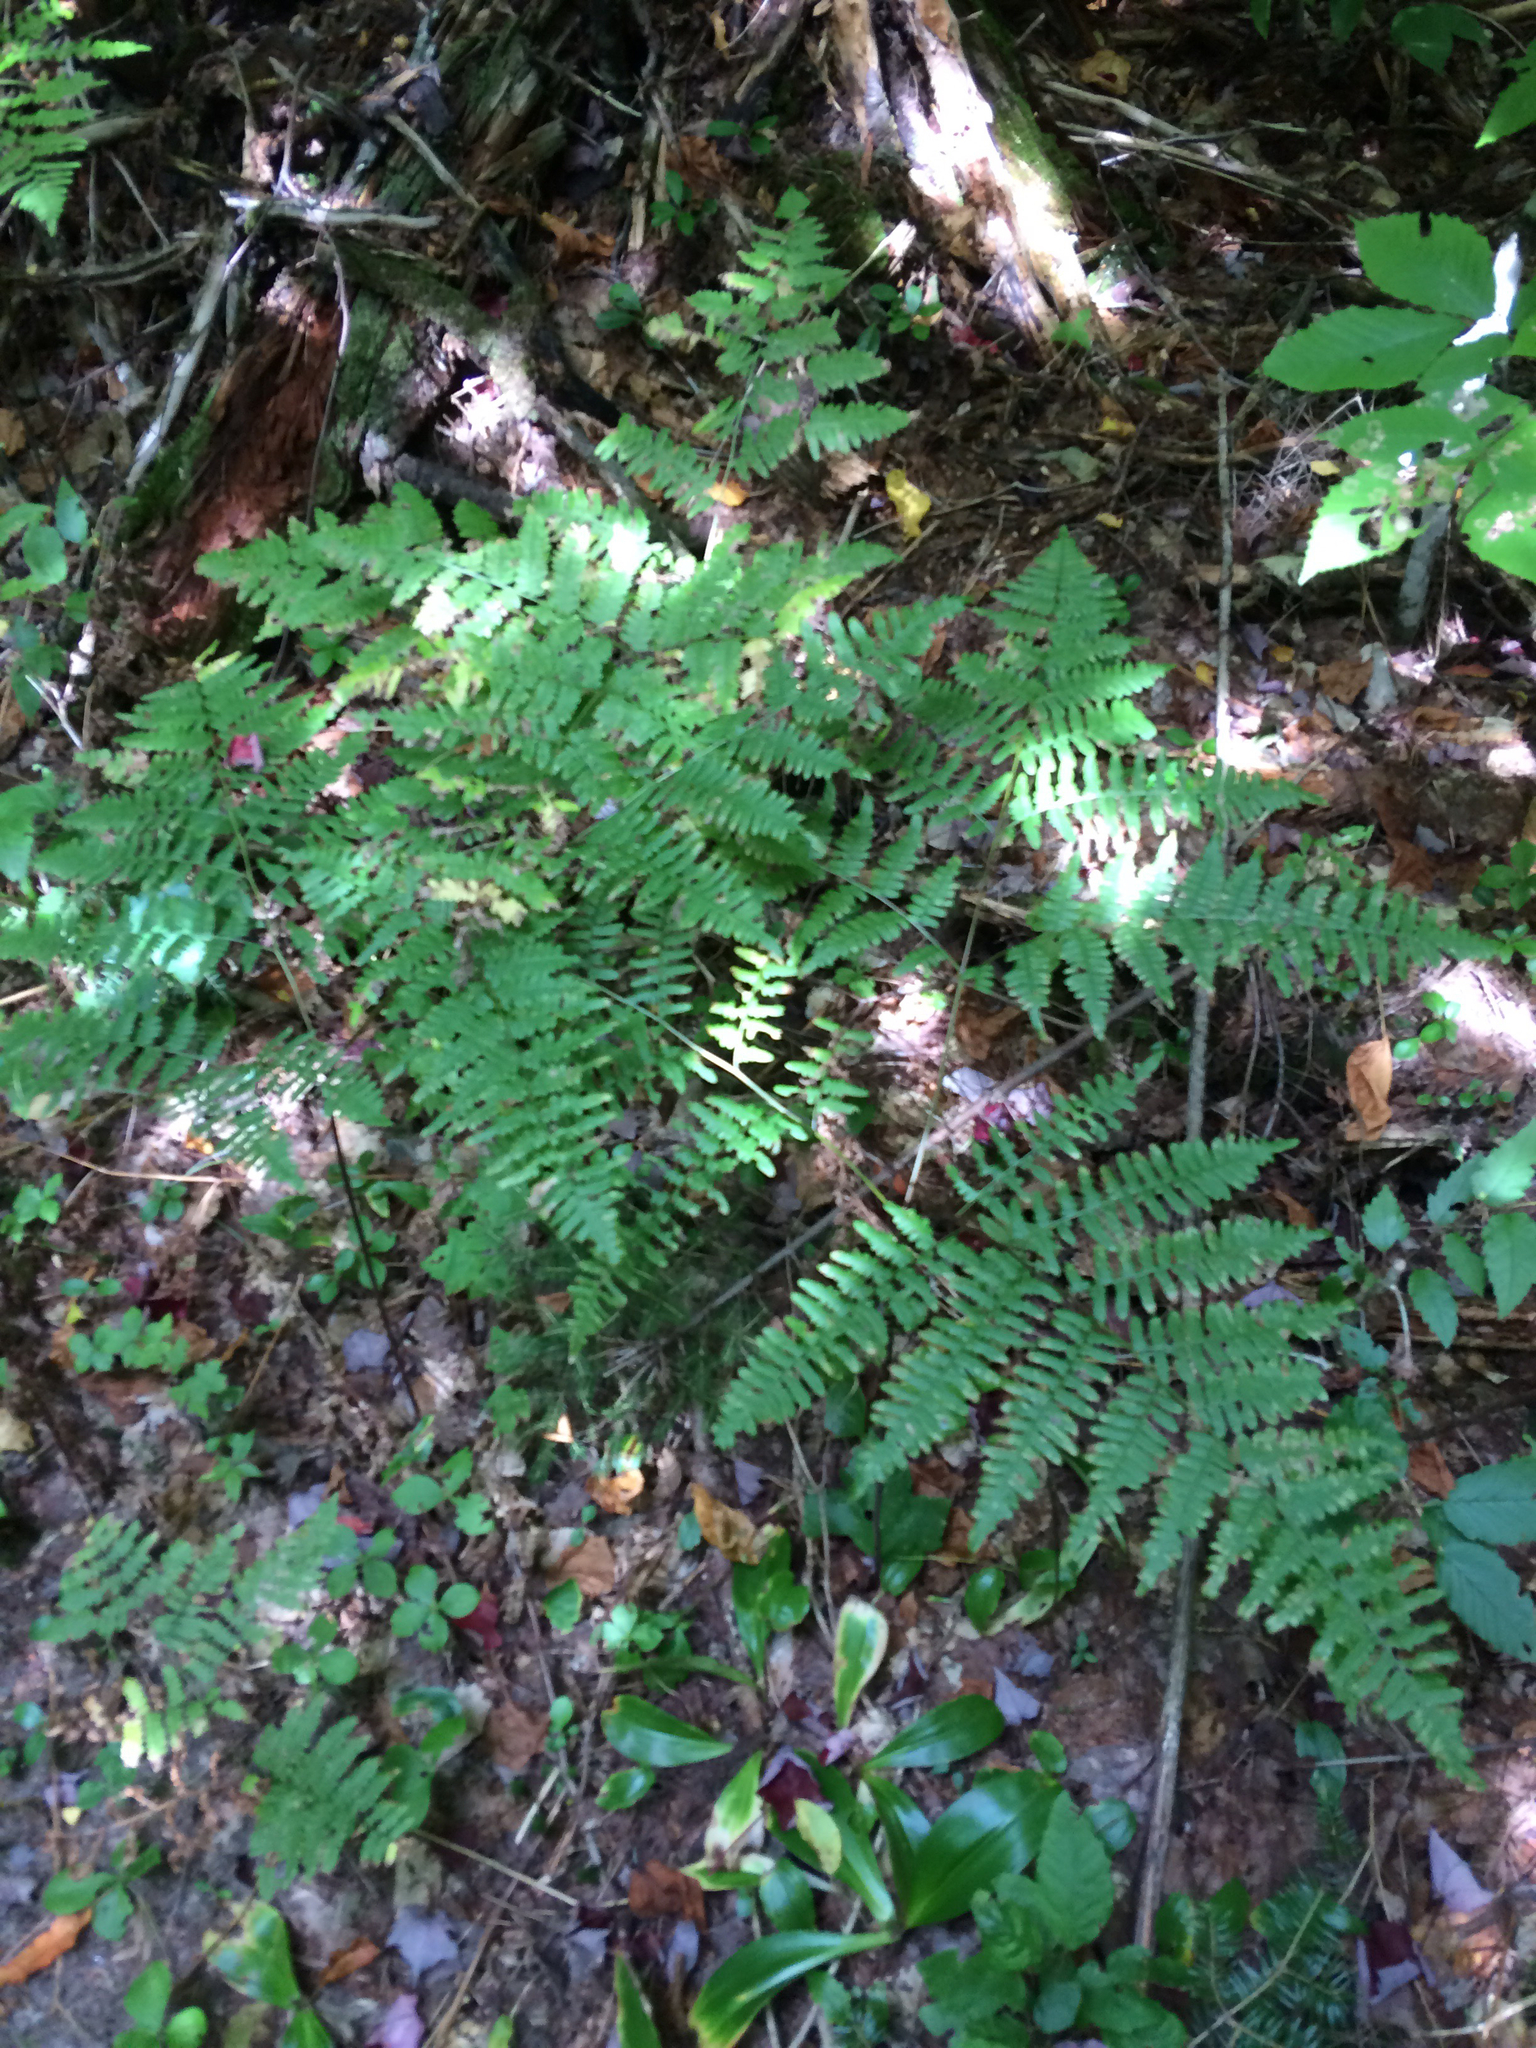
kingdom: Plantae
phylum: Tracheophyta
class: Polypodiopsida
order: Polypodiales
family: Dennstaedtiaceae
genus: Pteridium
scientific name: Pteridium aquilinum
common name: Bracken
